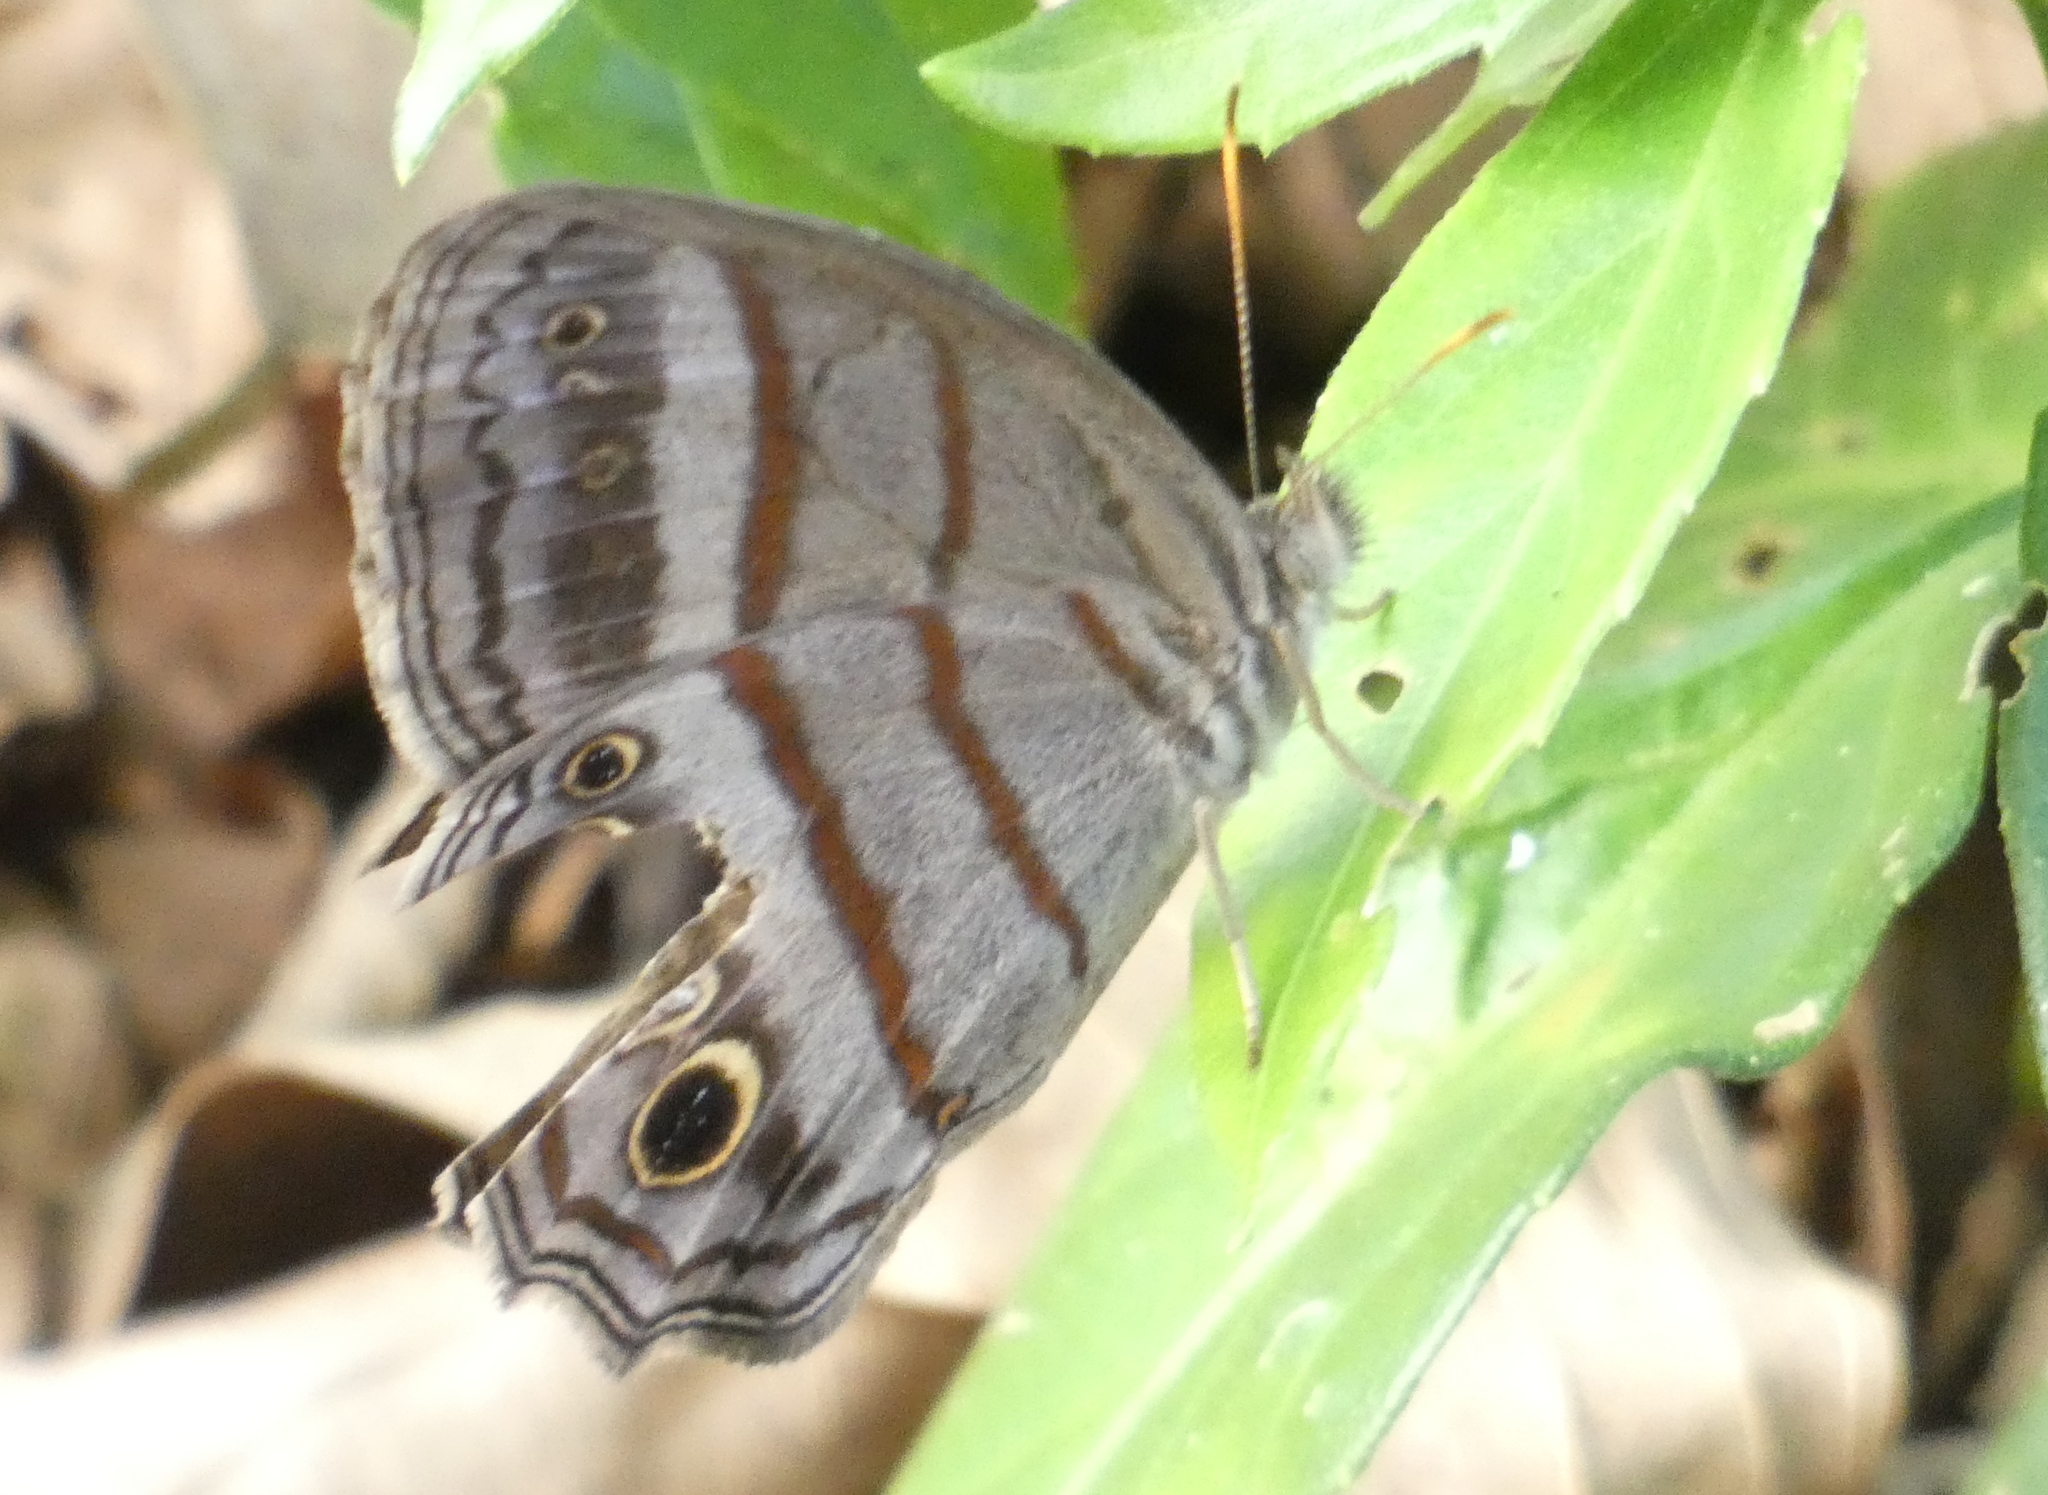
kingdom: Animalia
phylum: Arthropoda
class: Insecta
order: Lepidoptera
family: Nymphalidae
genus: Magneuptychia
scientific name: Magneuptychia libye
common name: Blue-gray satyr
